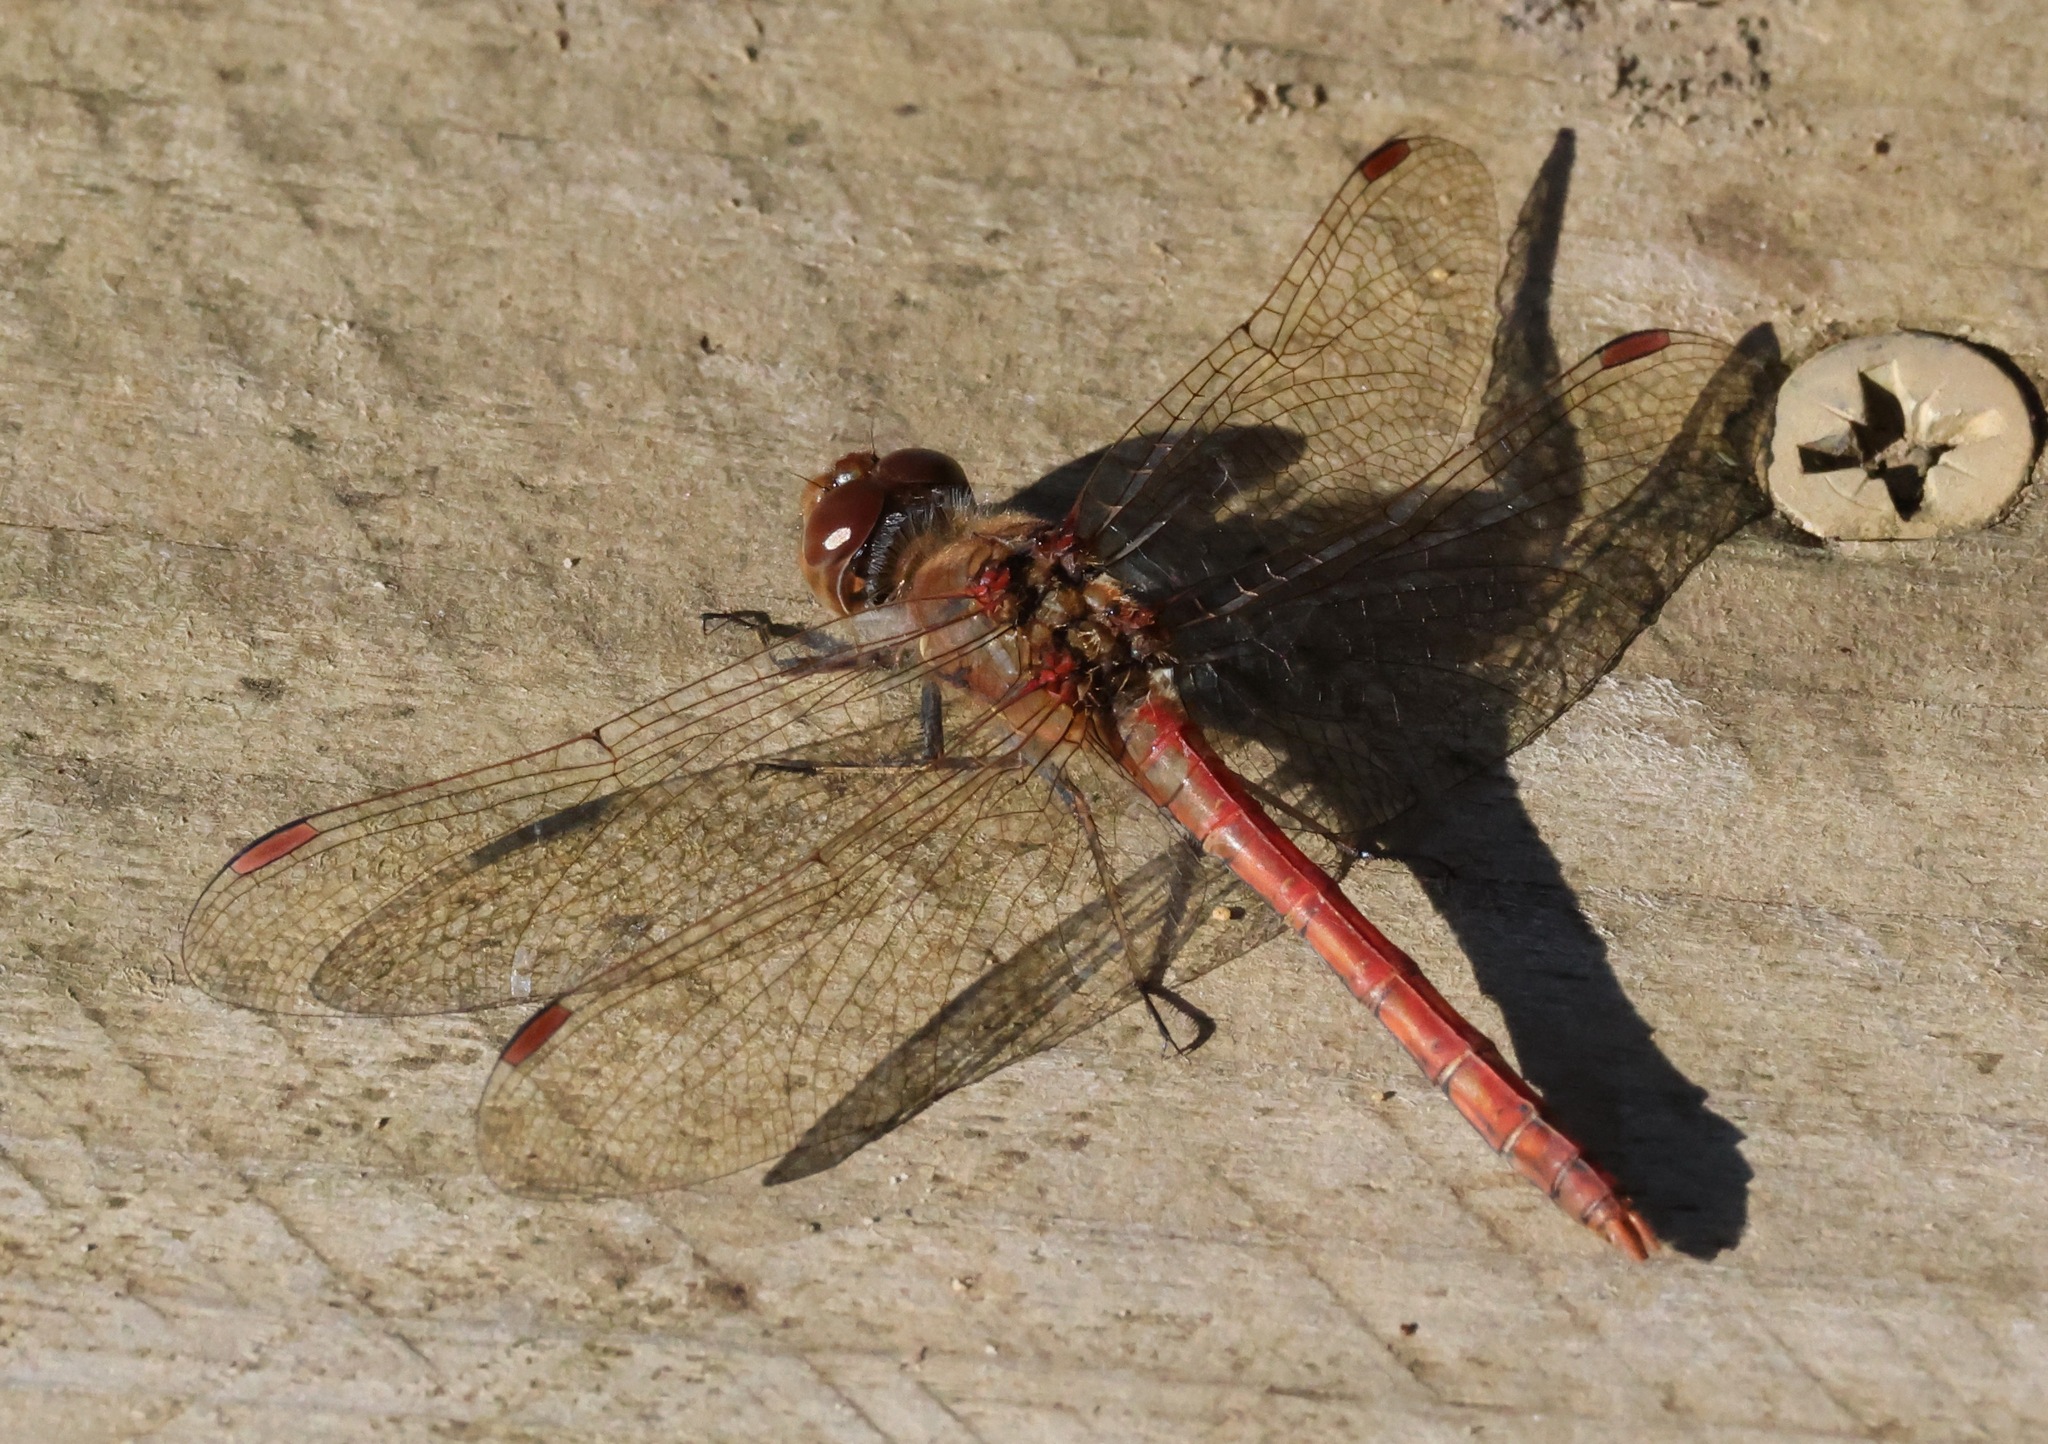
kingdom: Animalia
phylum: Arthropoda
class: Insecta
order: Odonata
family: Libellulidae
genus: Sympetrum
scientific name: Sympetrum striolatum
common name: Common darter
